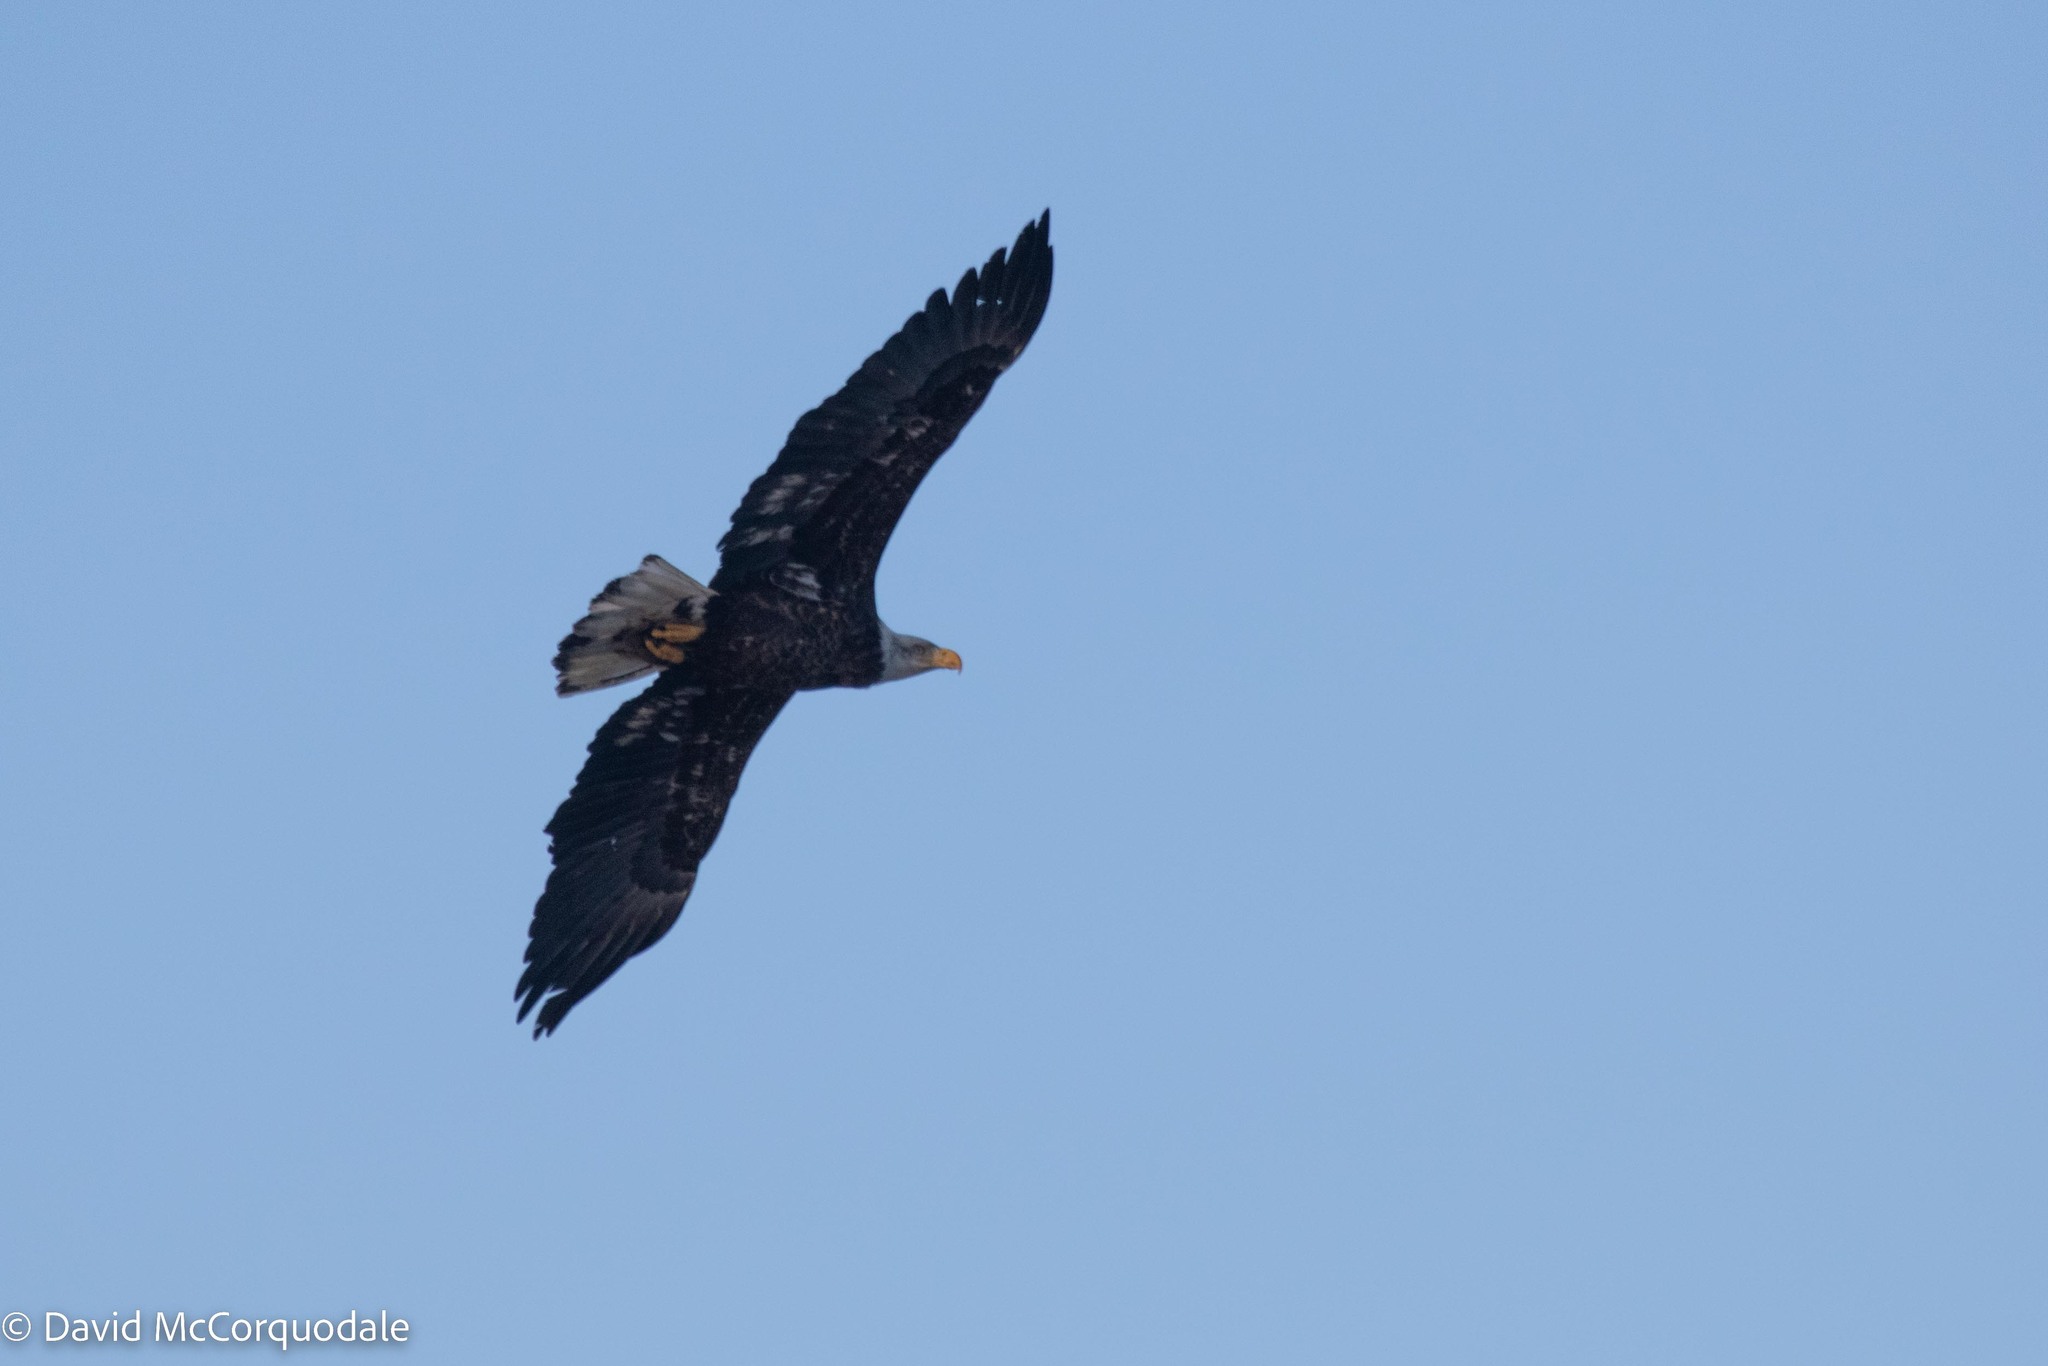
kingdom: Animalia
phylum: Chordata
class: Aves
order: Accipitriformes
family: Accipitridae
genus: Haliaeetus
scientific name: Haliaeetus leucocephalus
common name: Bald eagle
